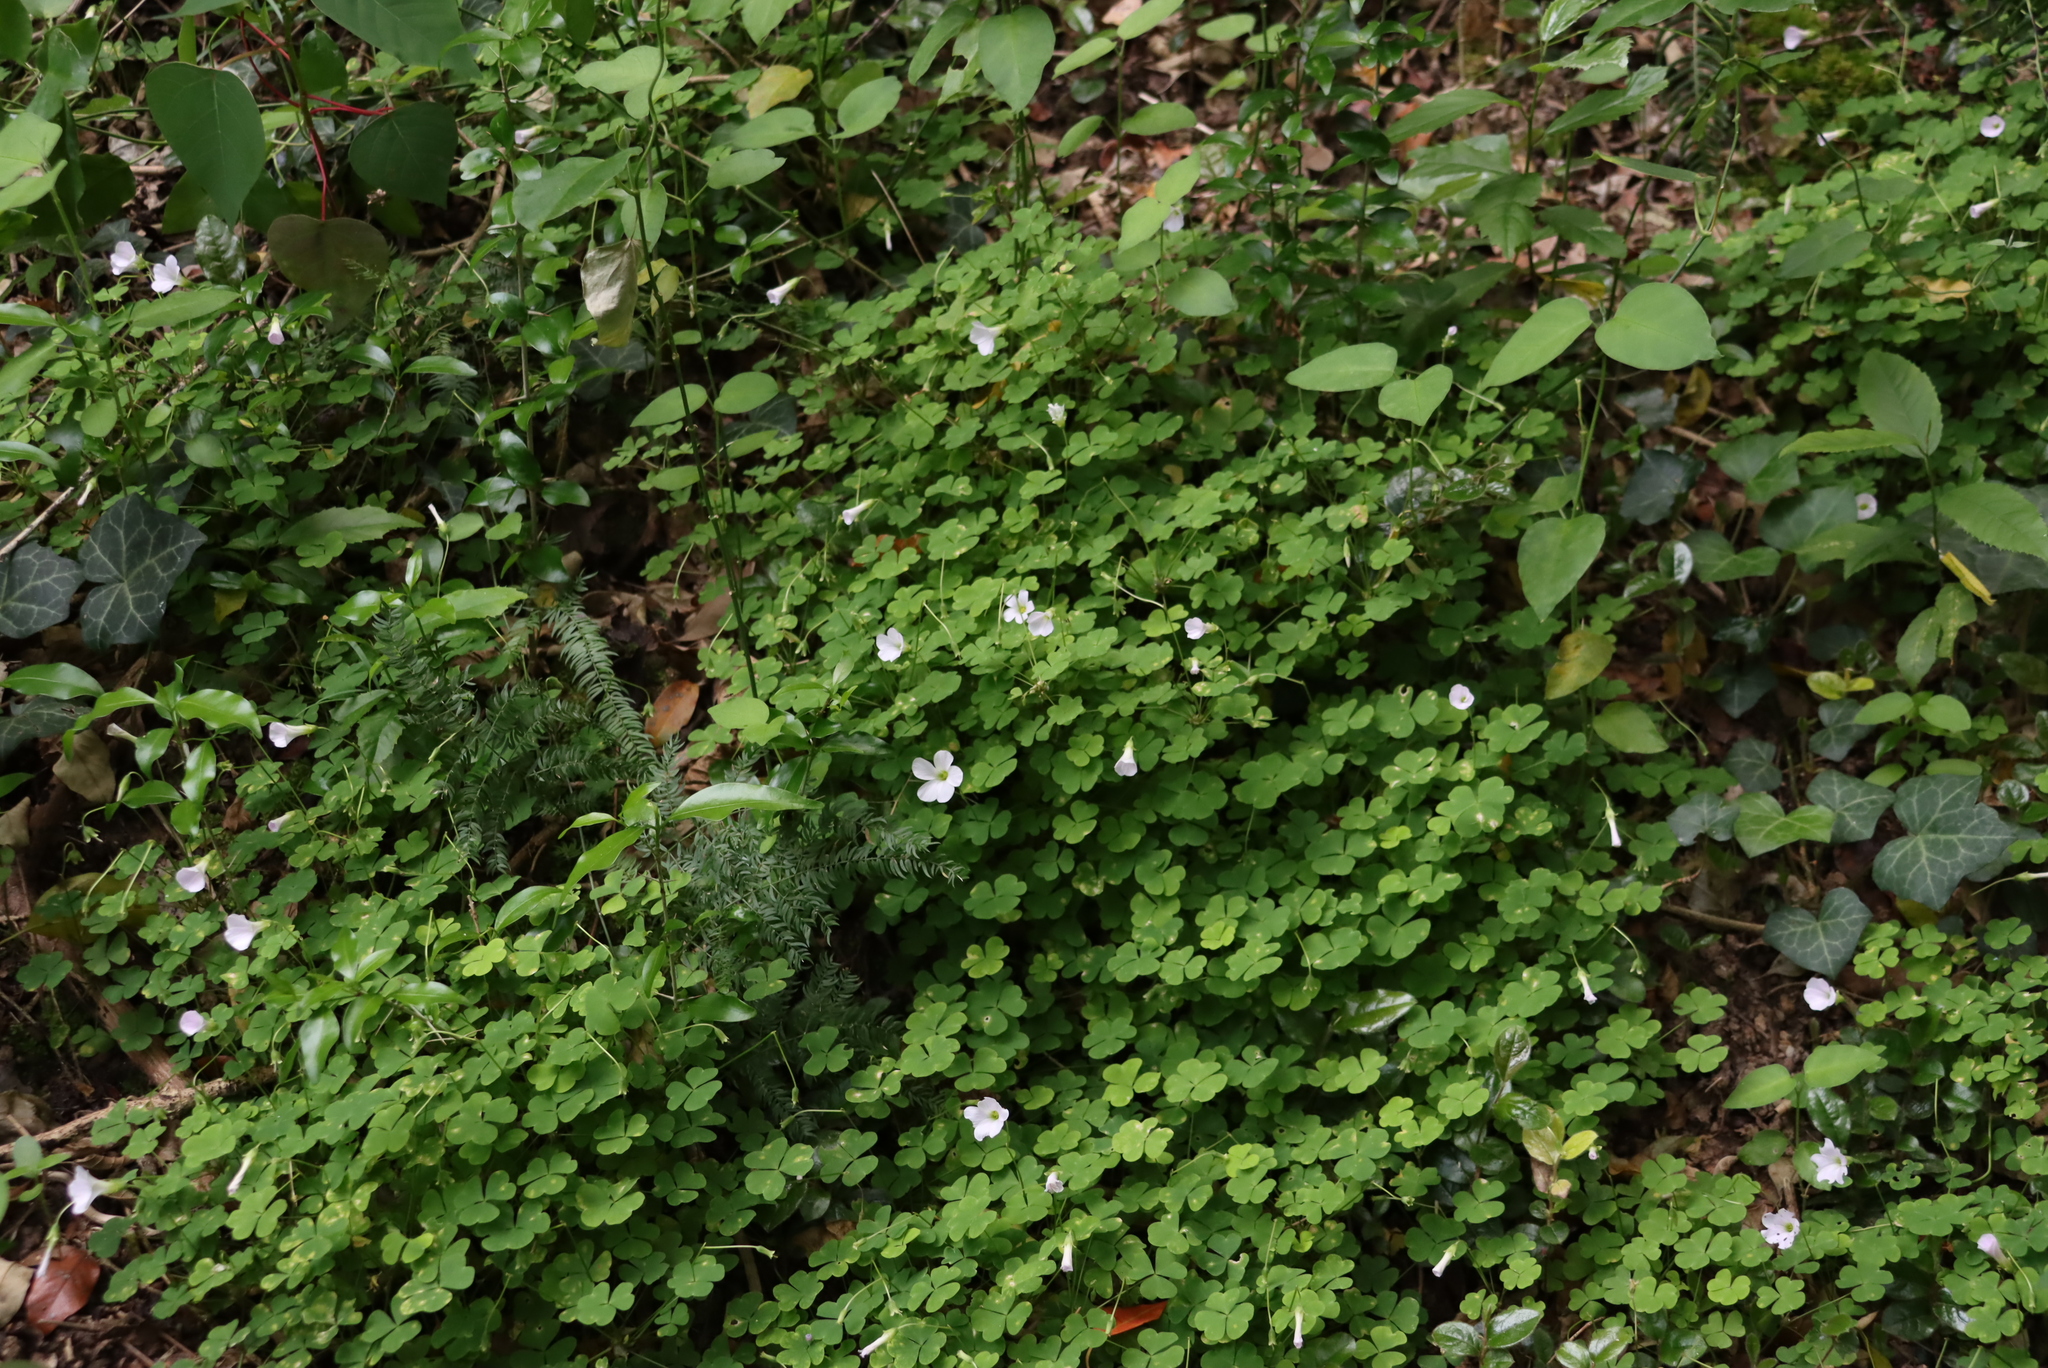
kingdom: Plantae
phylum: Tracheophyta
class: Magnoliopsida
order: Oxalidales
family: Oxalidaceae
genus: Oxalis
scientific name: Oxalis incarnata
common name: Pale pink-sorrel
